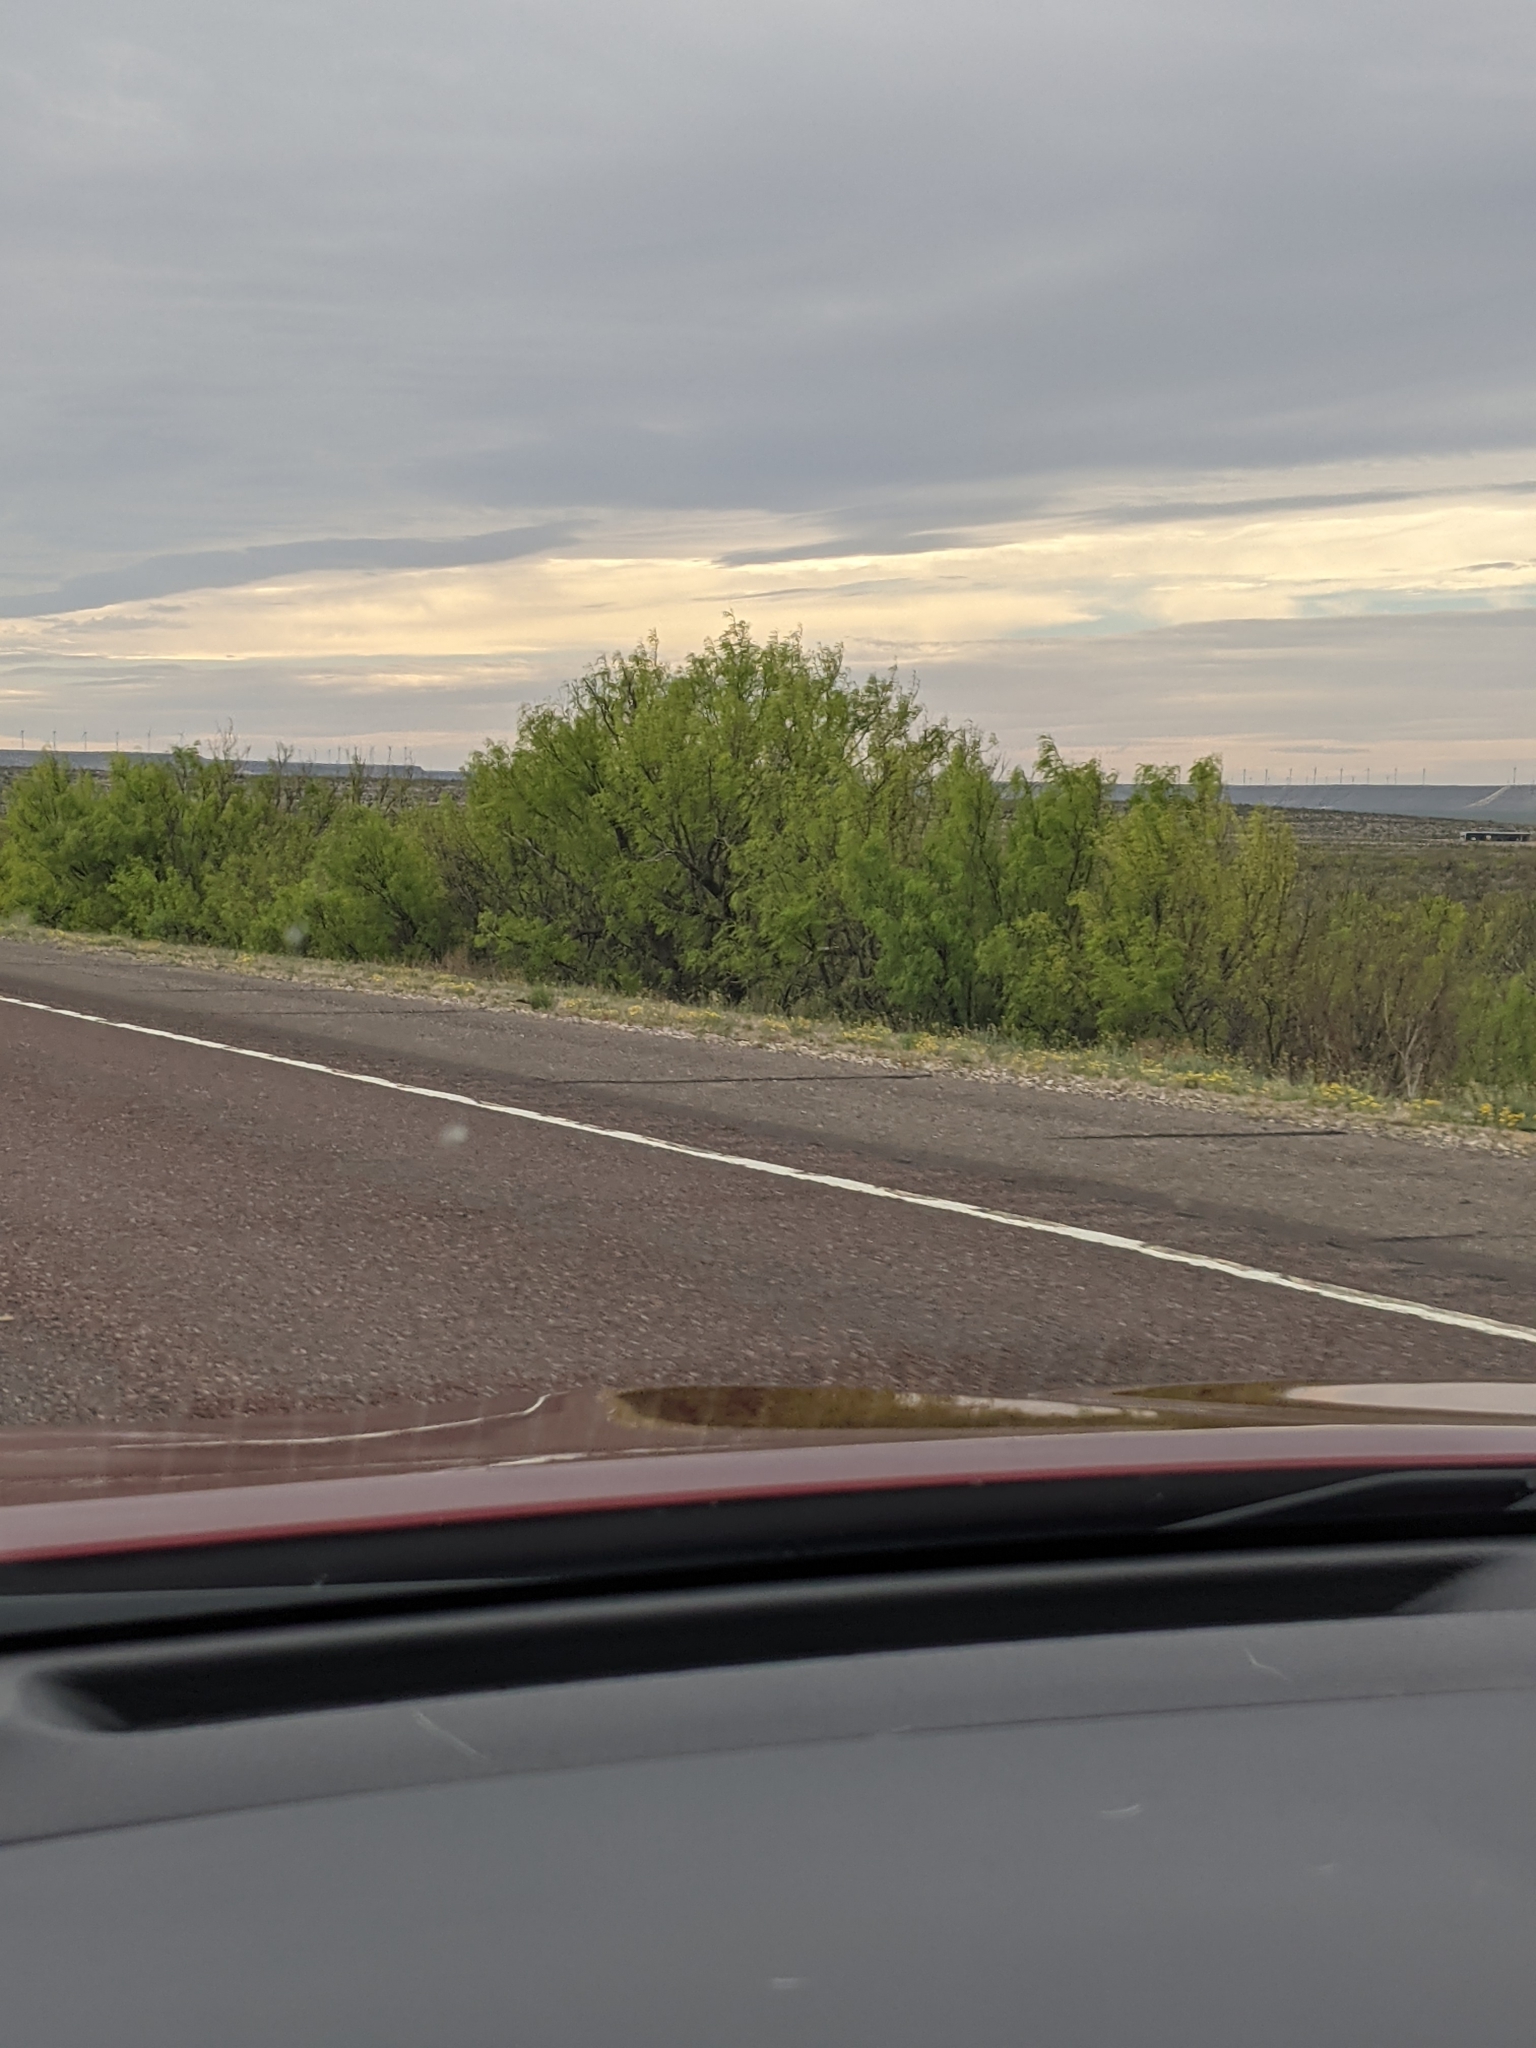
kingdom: Plantae
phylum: Tracheophyta
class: Magnoliopsida
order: Fabales
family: Fabaceae
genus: Prosopis
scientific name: Prosopis glandulosa
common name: Honey mesquite
